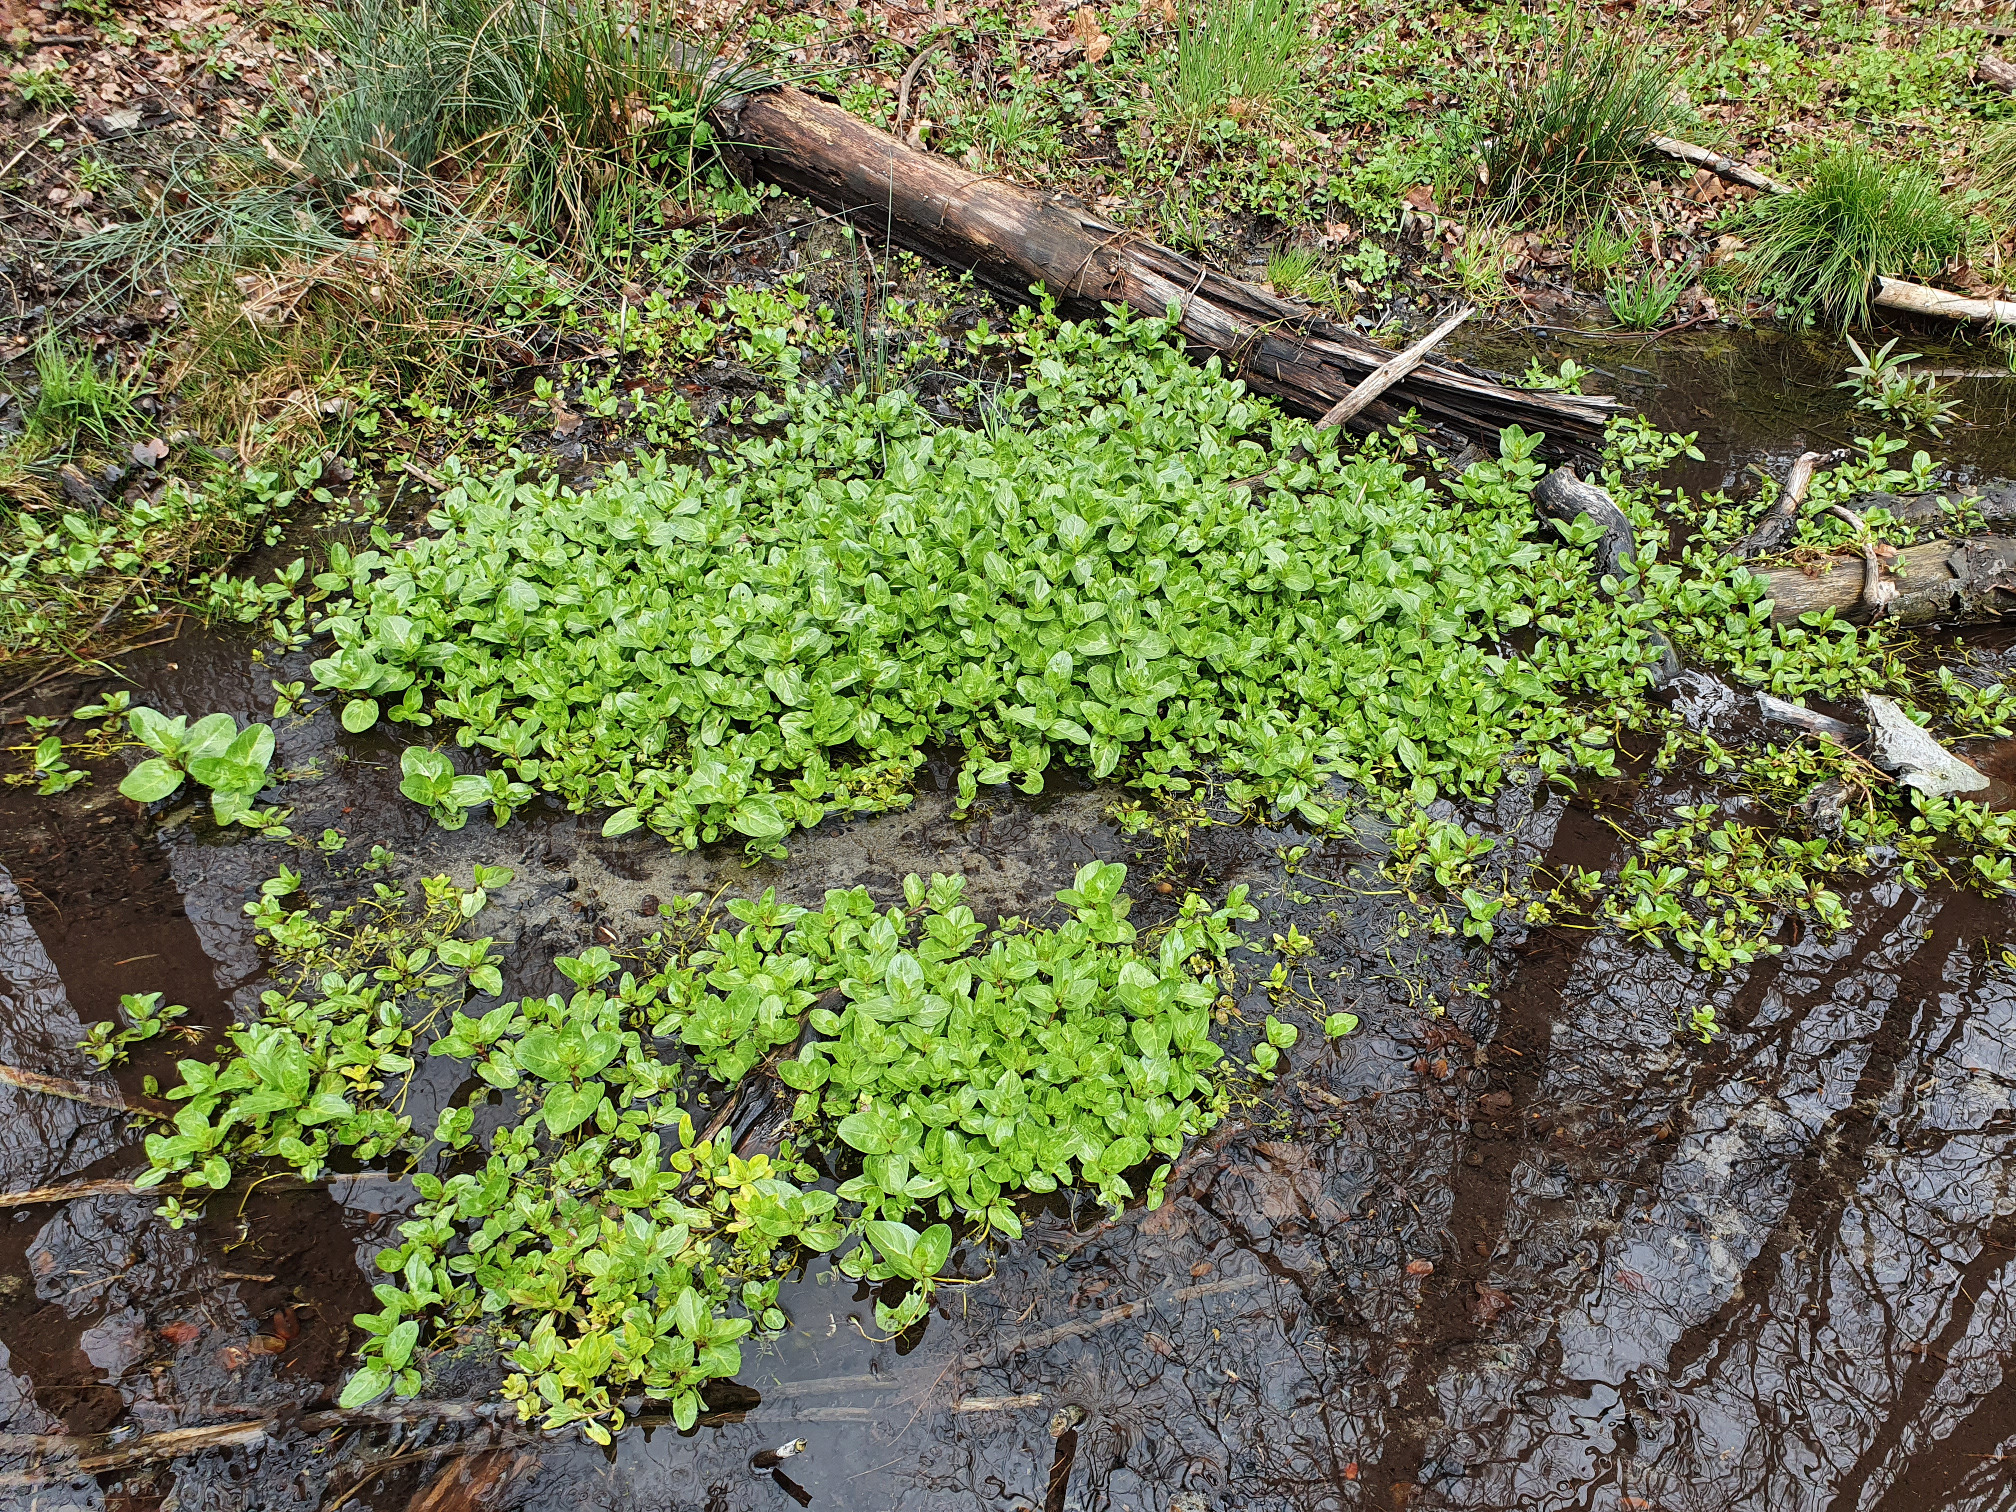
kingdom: Plantae
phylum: Tracheophyta
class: Magnoliopsida
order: Lamiales
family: Plantaginaceae
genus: Veronica
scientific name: Veronica beccabunga
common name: Brooklime
